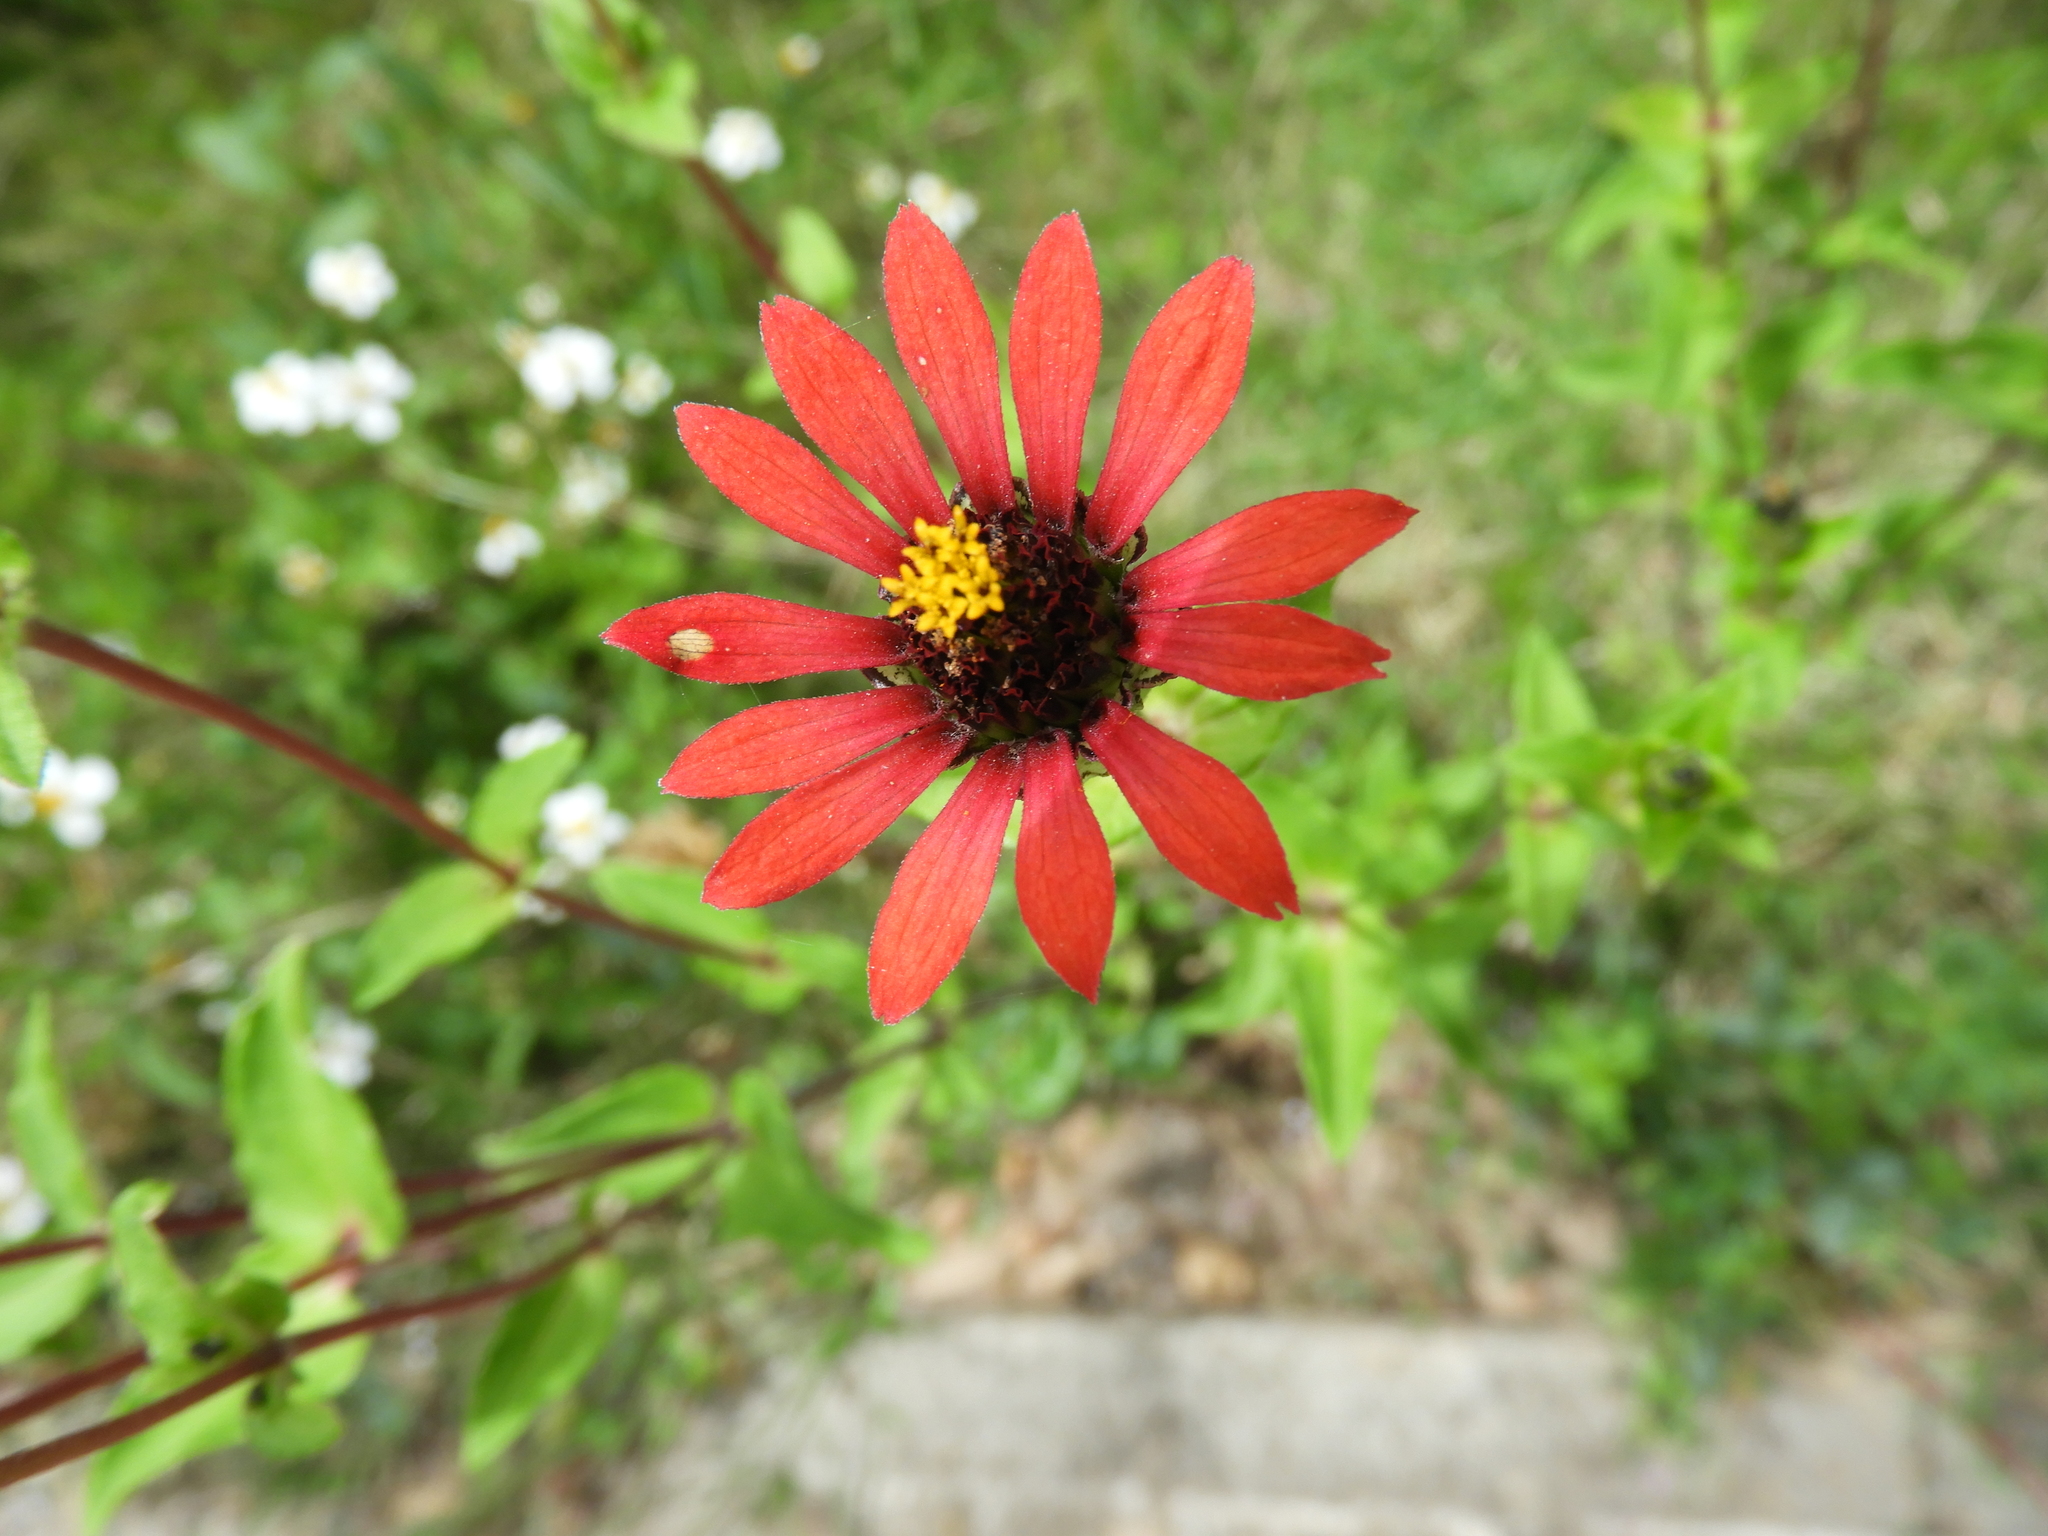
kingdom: Plantae
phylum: Tracheophyta
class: Magnoliopsida
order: Asterales
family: Asteraceae
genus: Zinnia
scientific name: Zinnia peruviana
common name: Peruvian zinnia
